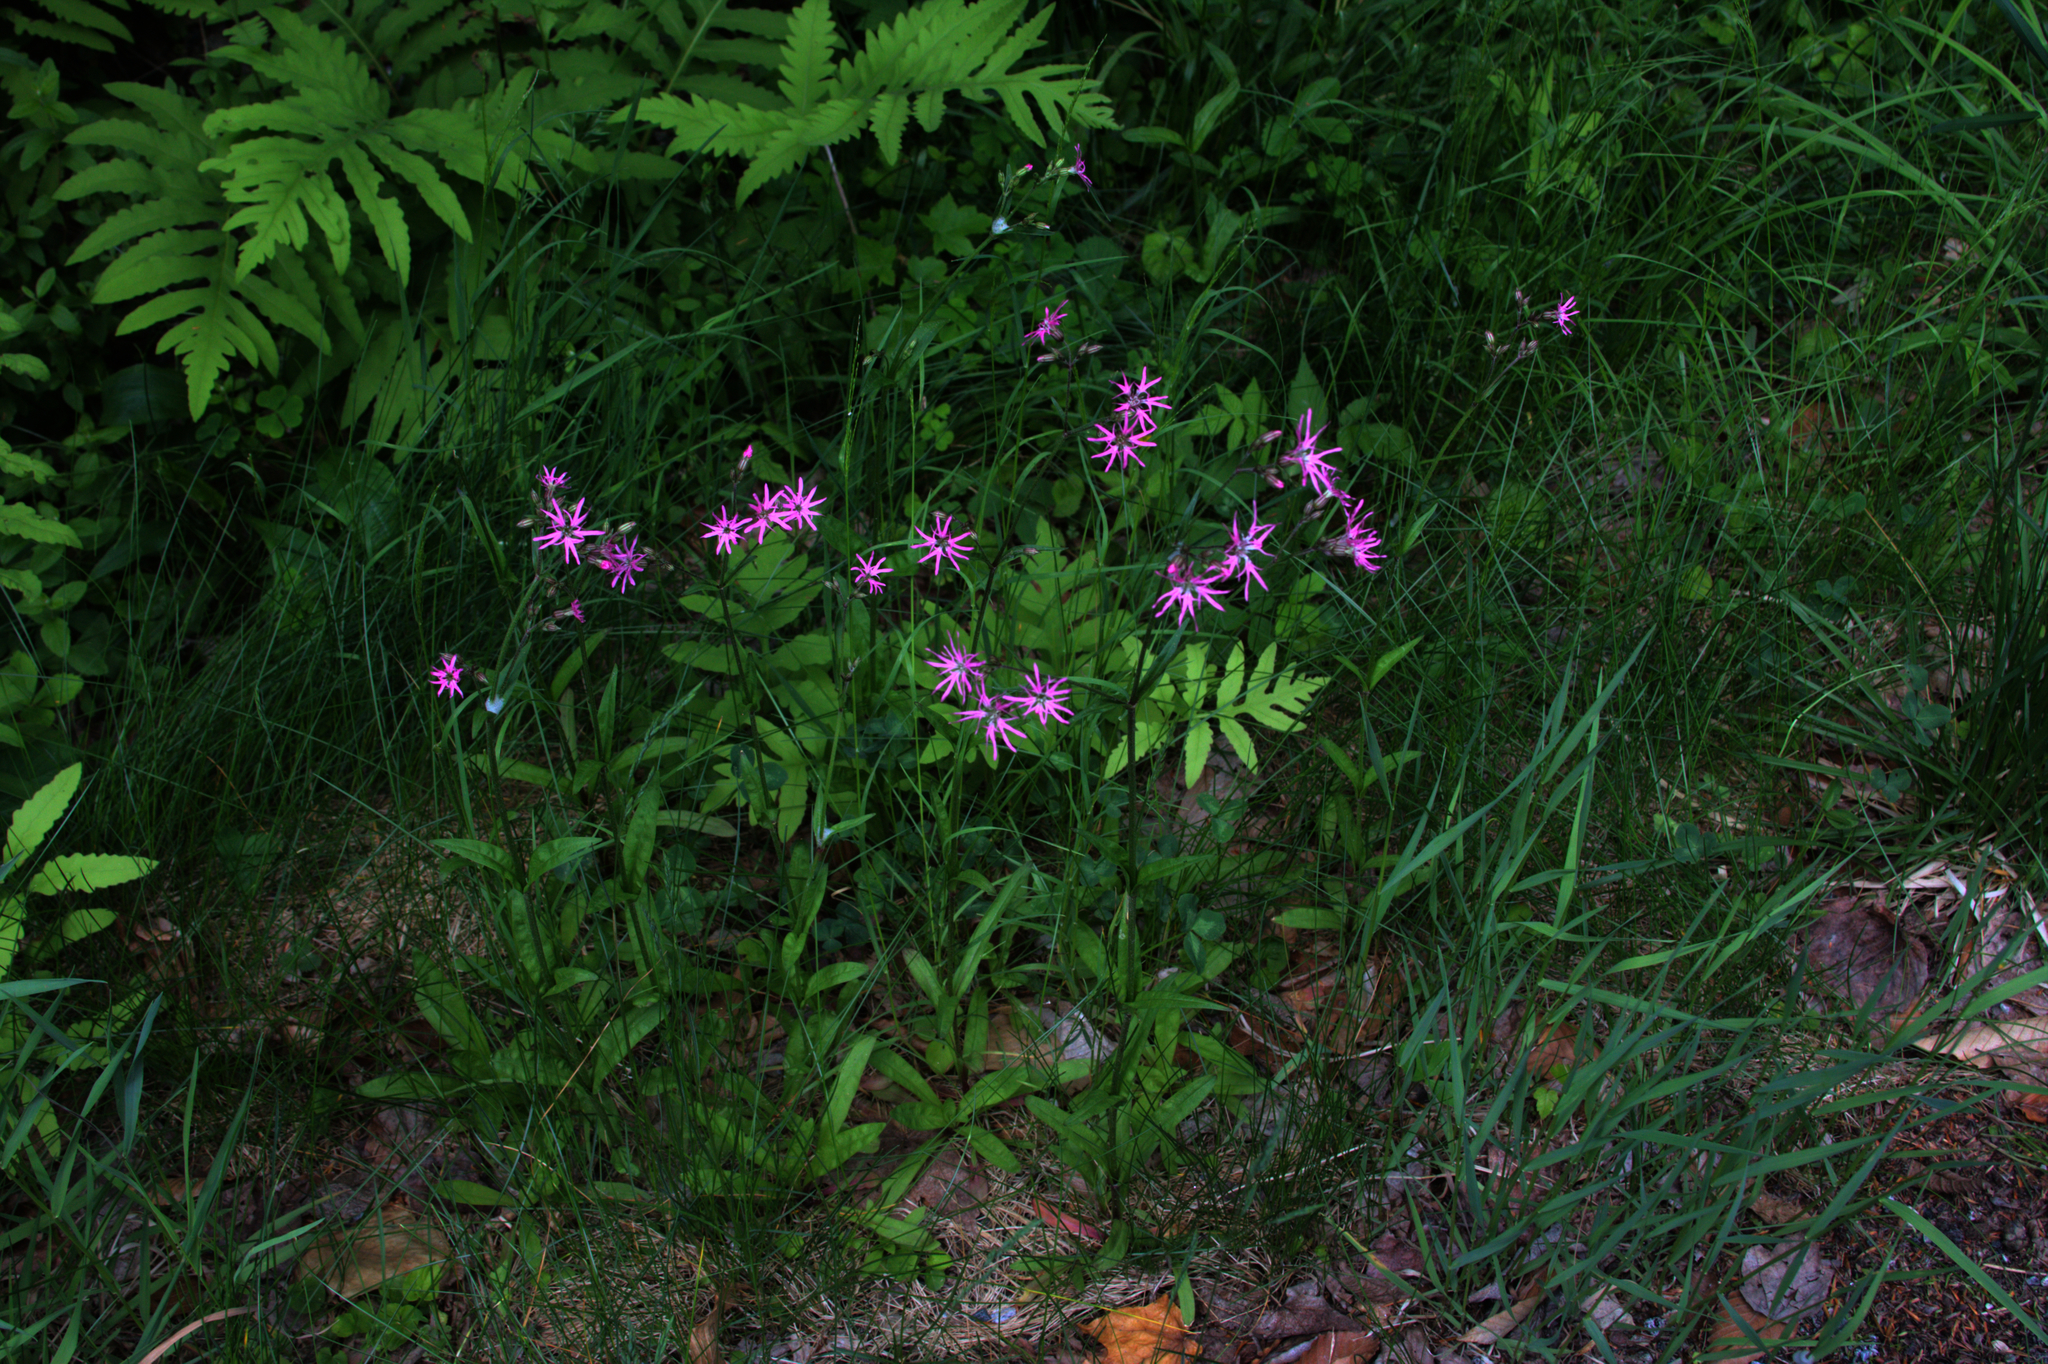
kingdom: Plantae
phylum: Tracheophyta
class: Magnoliopsida
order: Caryophyllales
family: Caryophyllaceae
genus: Silene
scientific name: Silene flos-cuculi
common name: Ragged-robin
